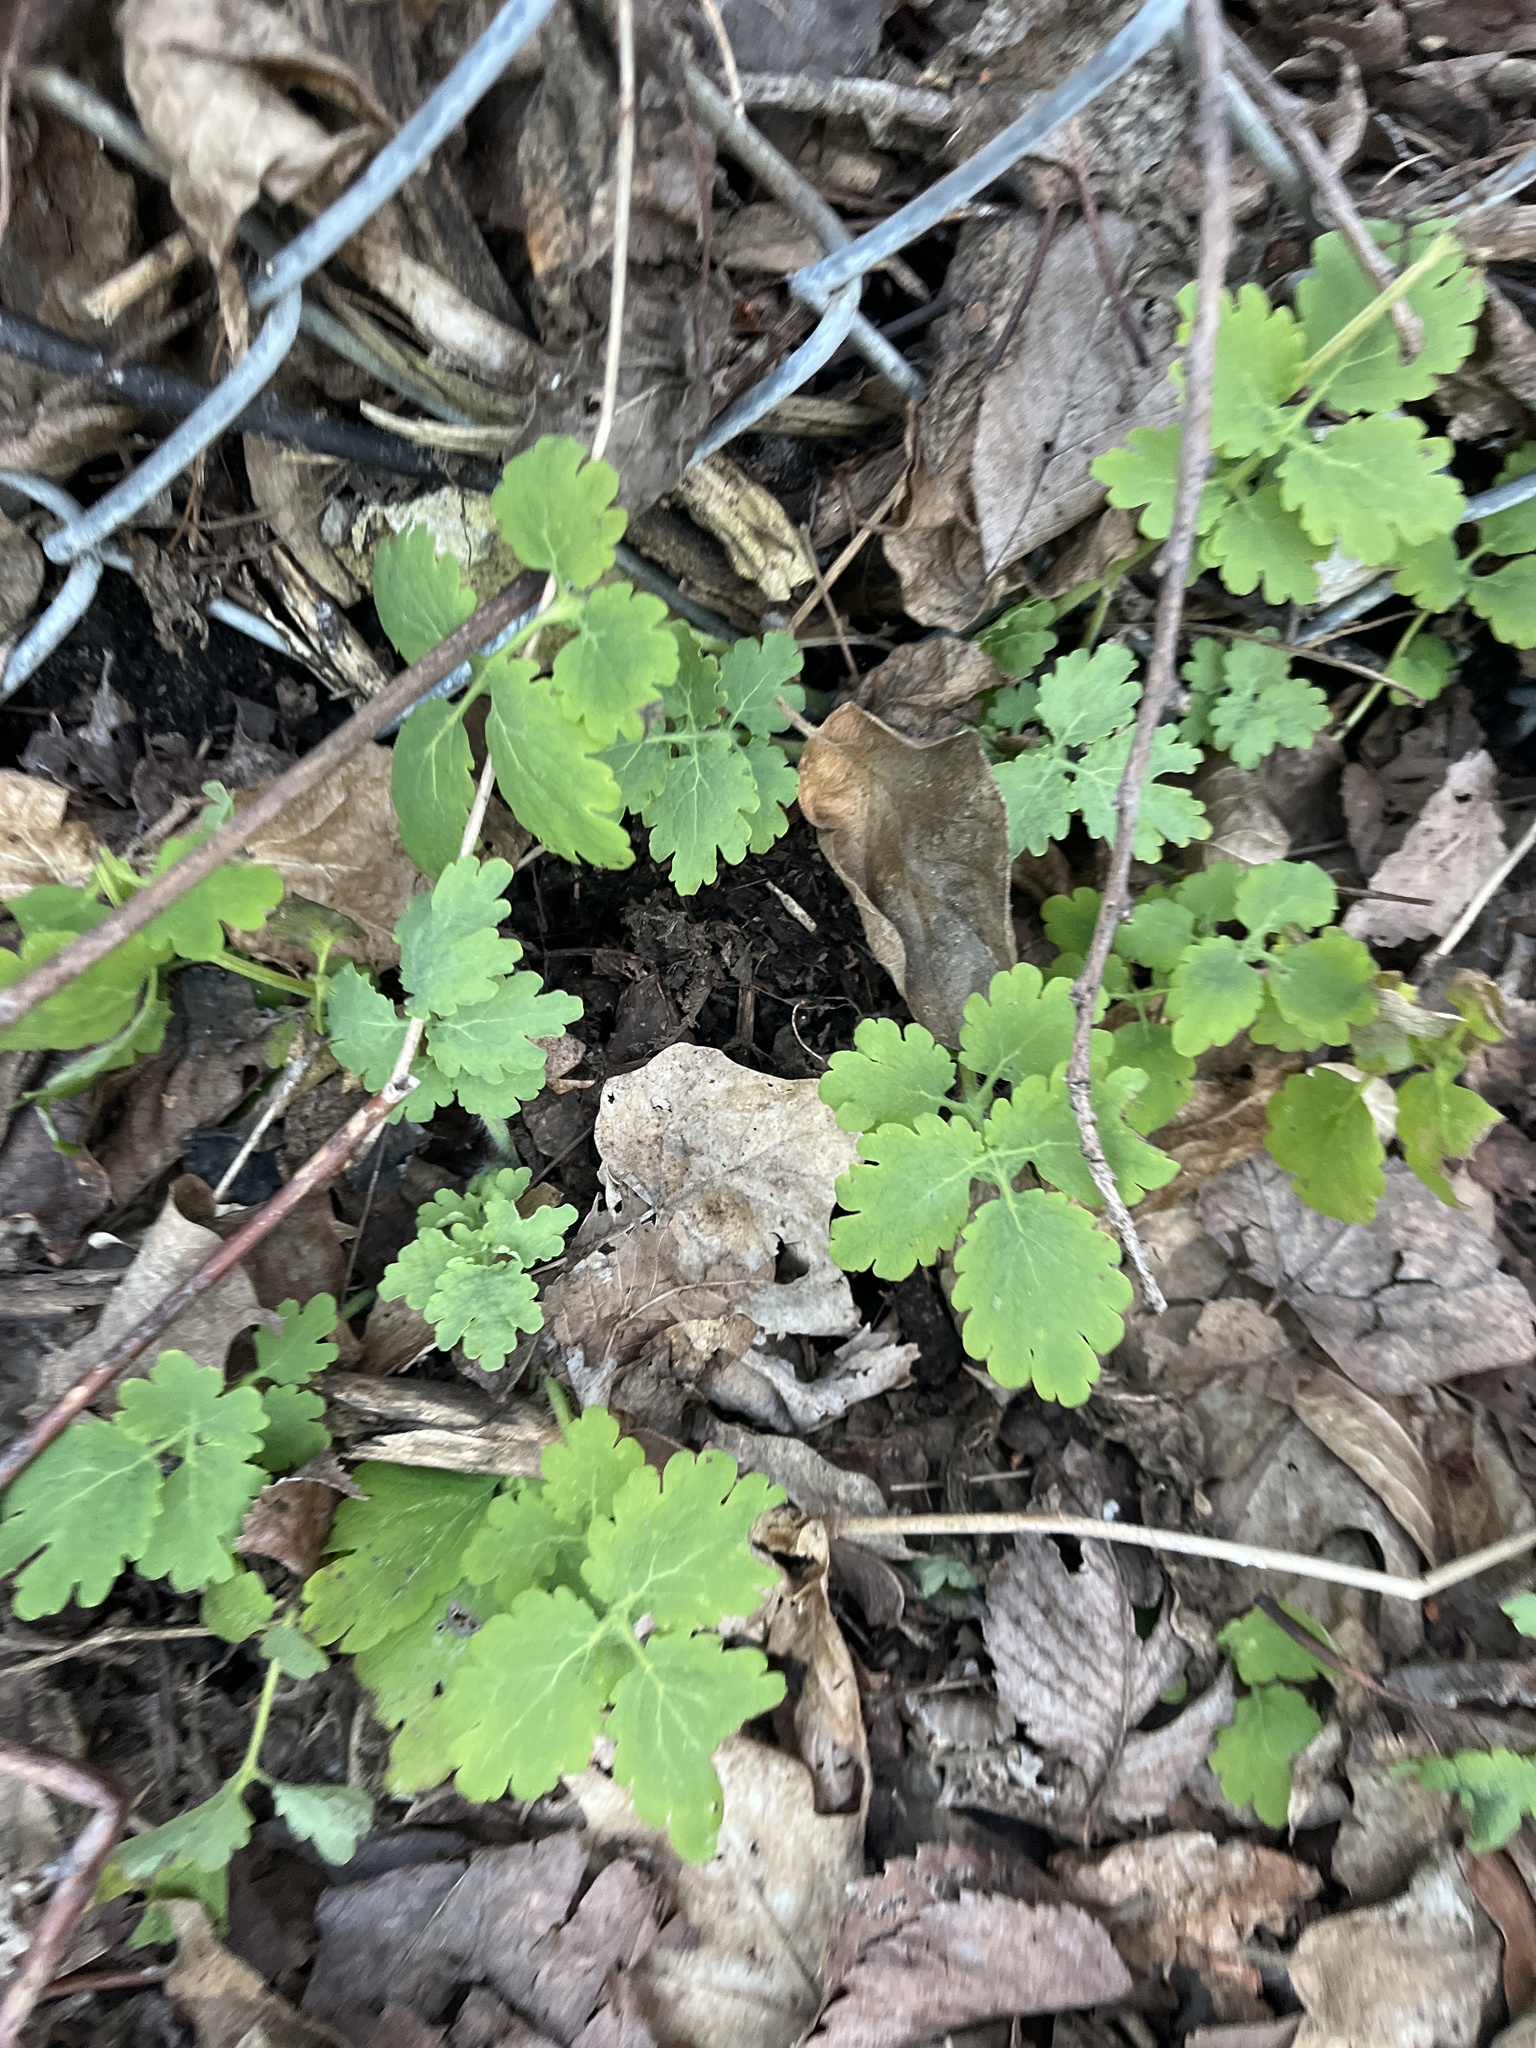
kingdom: Plantae
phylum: Tracheophyta
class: Magnoliopsida
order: Ranunculales
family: Papaveraceae
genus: Chelidonium
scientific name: Chelidonium majus
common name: Greater celandine
